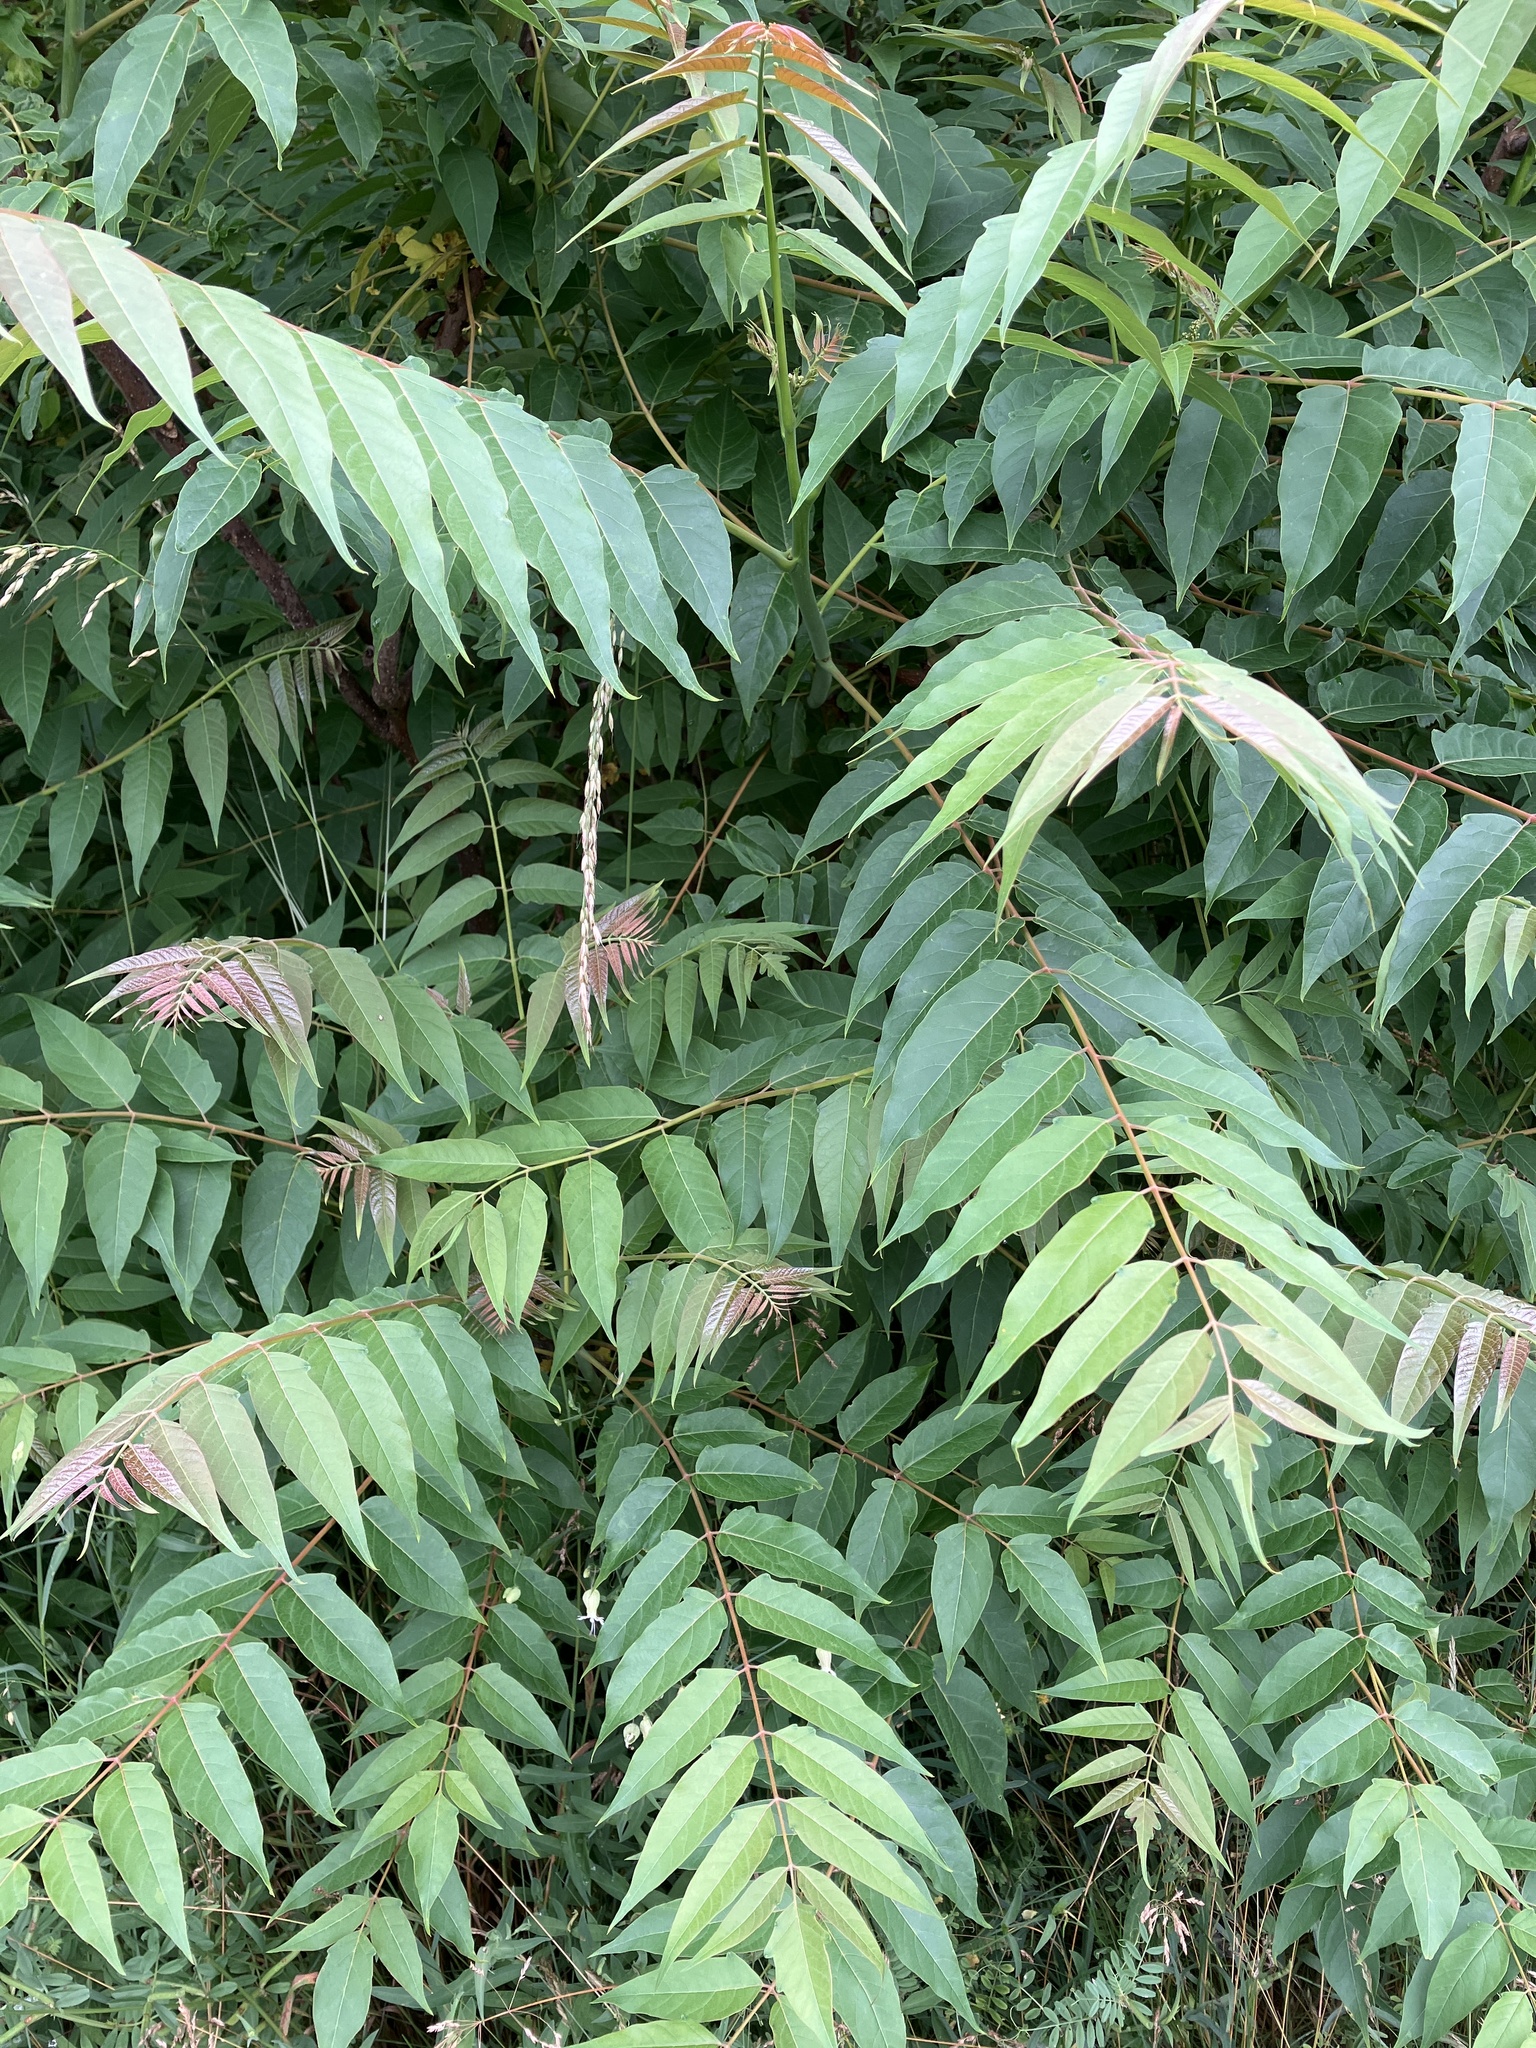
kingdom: Plantae
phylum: Tracheophyta
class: Magnoliopsida
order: Sapindales
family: Simaroubaceae
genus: Ailanthus
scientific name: Ailanthus altissima
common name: Tree-of-heaven
